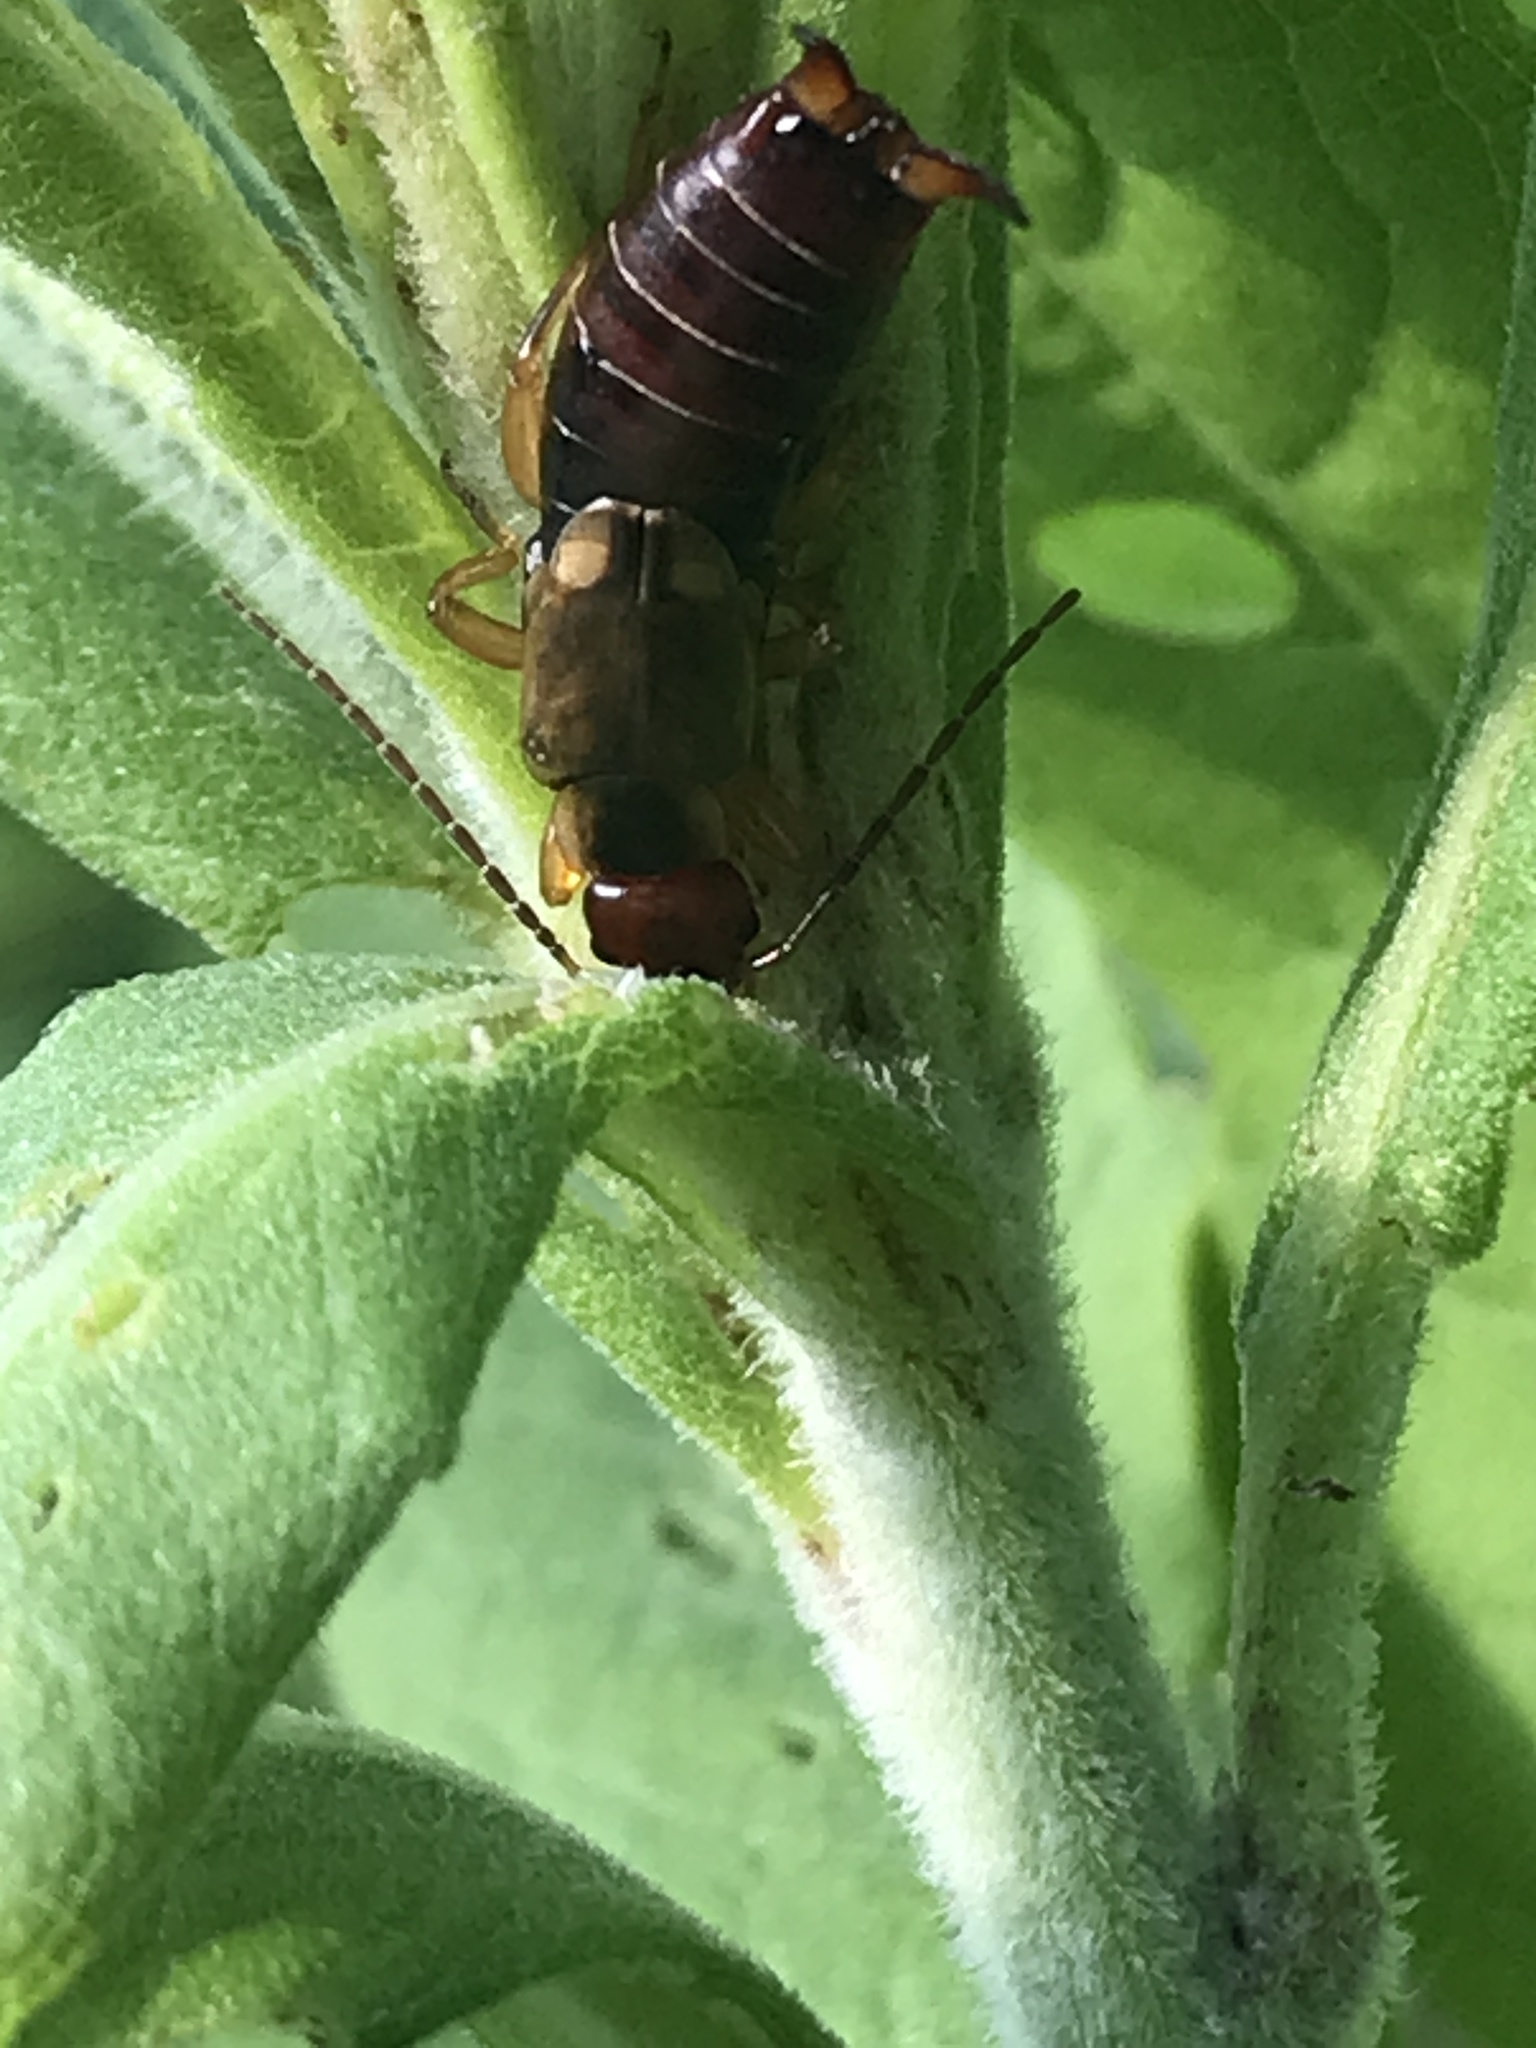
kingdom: Animalia
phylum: Arthropoda
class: Insecta
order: Dermaptera
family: Forficulidae
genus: Forficula
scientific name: Forficula
